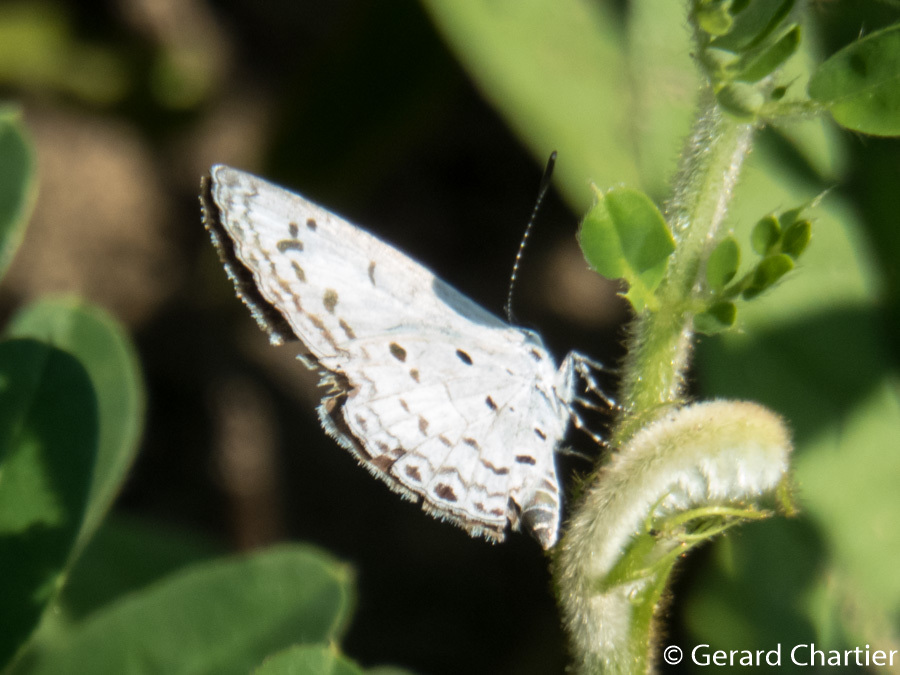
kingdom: Animalia
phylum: Arthropoda
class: Insecta
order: Lepidoptera
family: Lycaenidae
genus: Acytolepis
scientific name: Acytolepis puspa
